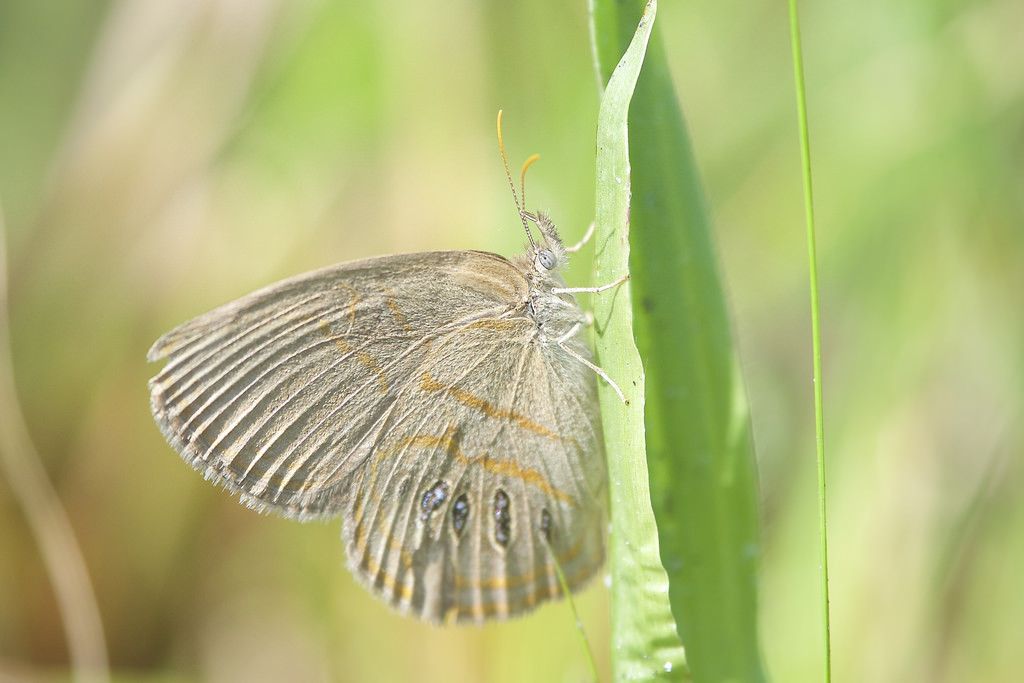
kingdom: Animalia
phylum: Arthropoda
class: Insecta
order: Lepidoptera
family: Nymphalidae
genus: Euptychia
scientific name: Euptychia phocion
